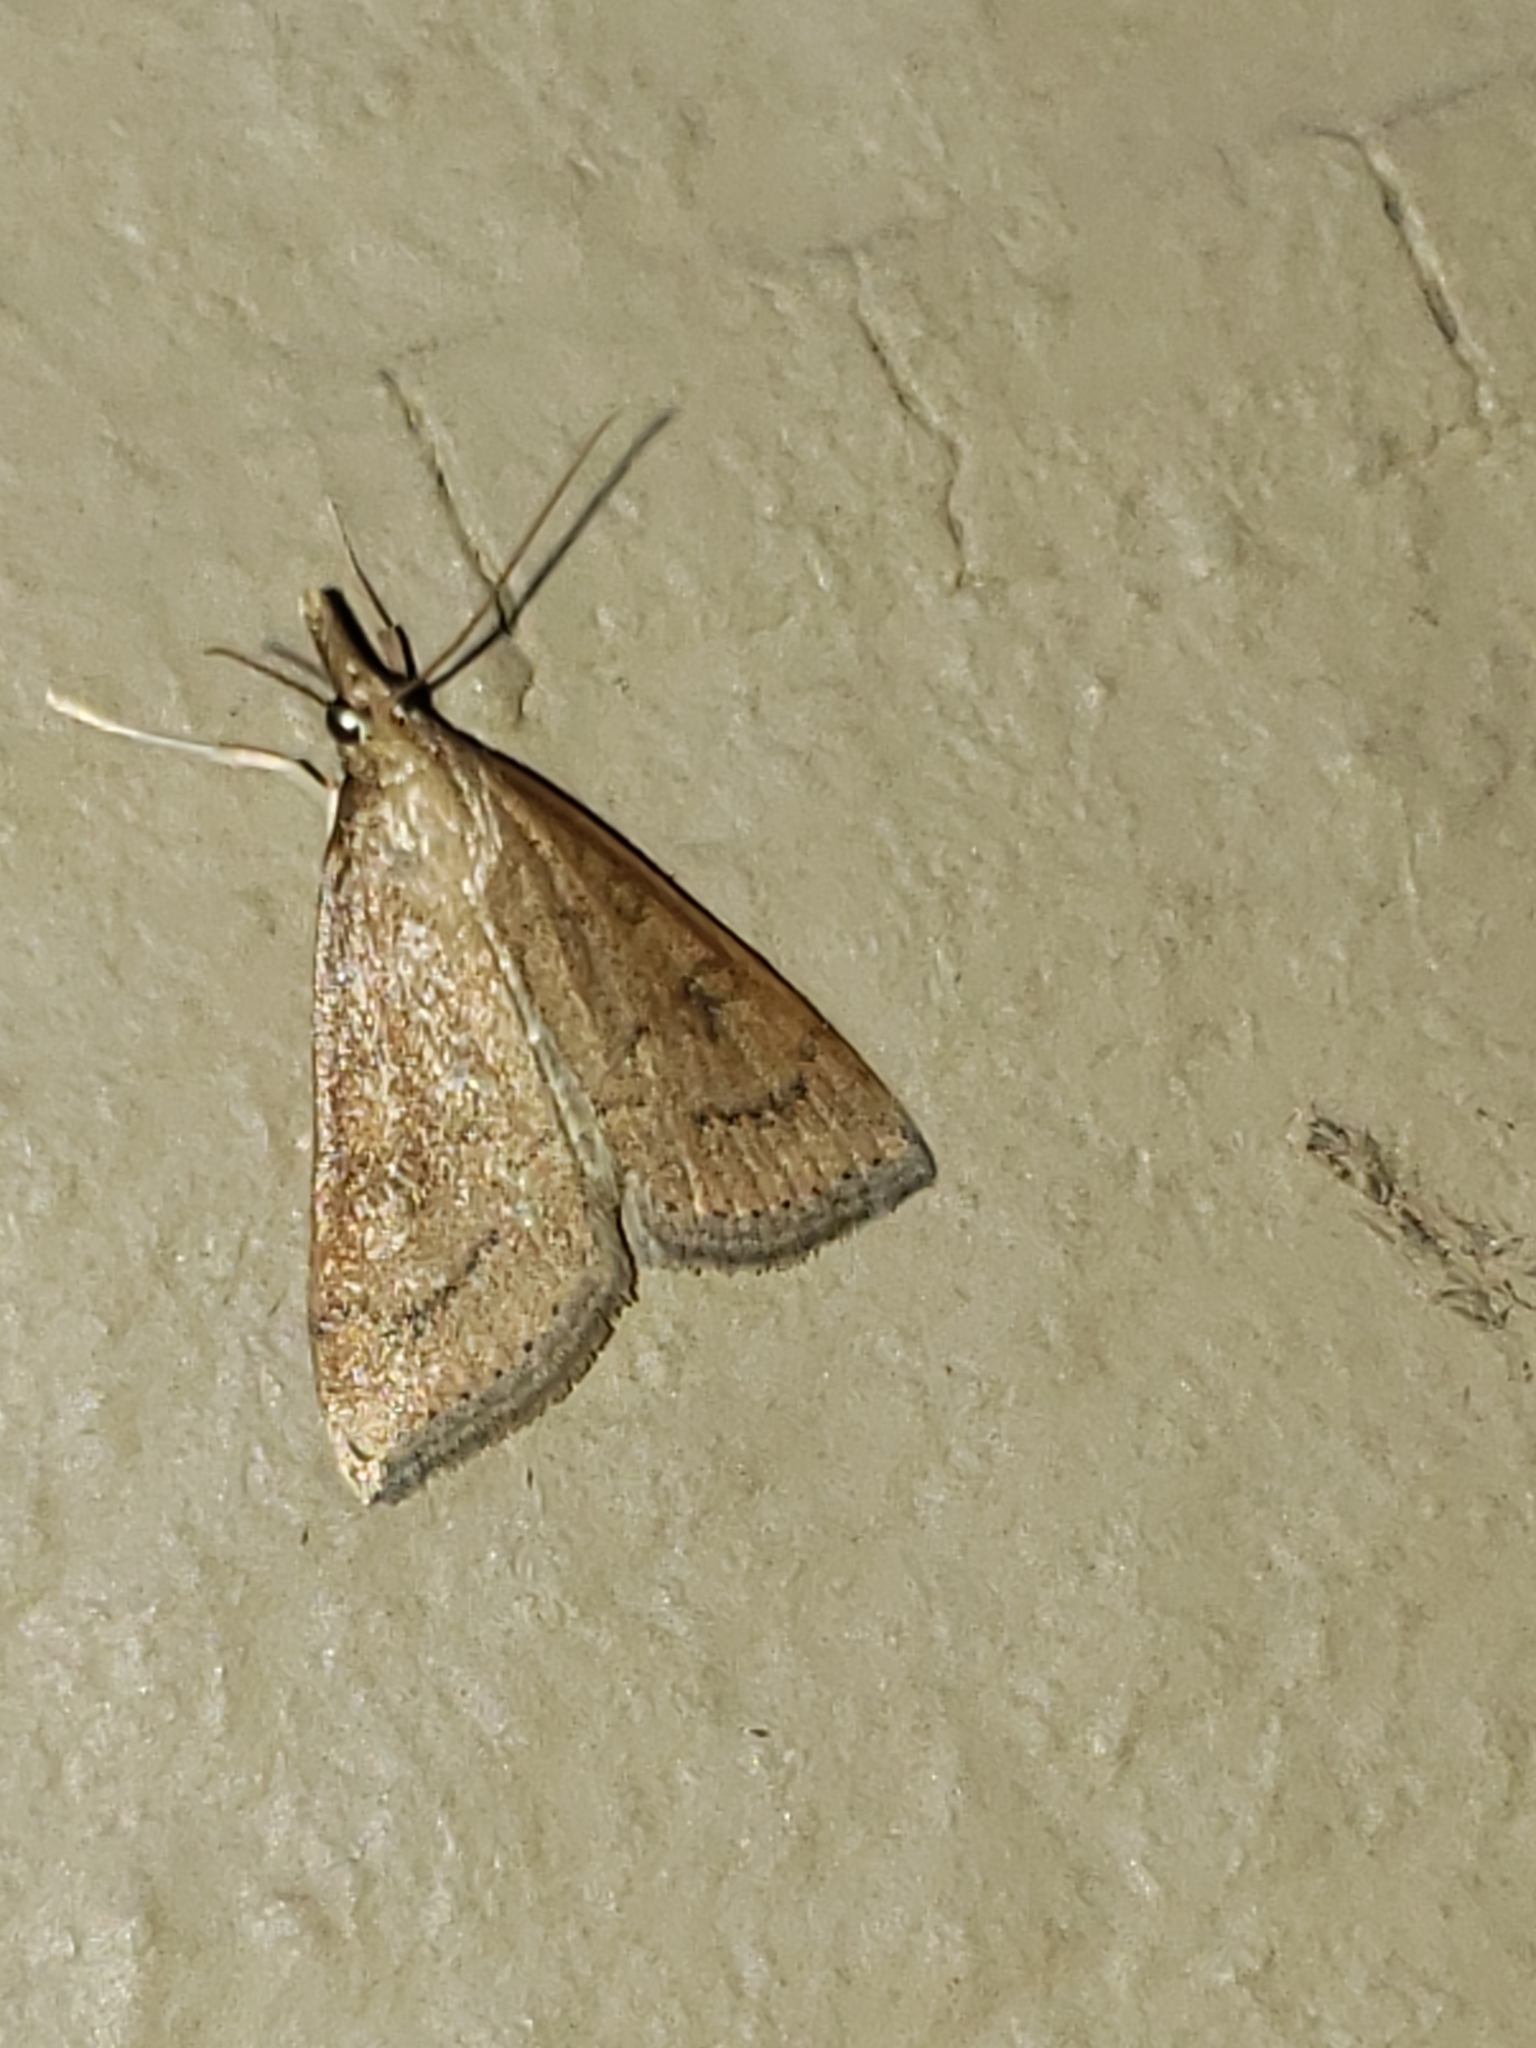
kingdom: Animalia
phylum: Arthropoda
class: Insecta
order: Lepidoptera
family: Crambidae
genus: Udea
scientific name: Udea rubigalis
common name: Celery leaftier moth
